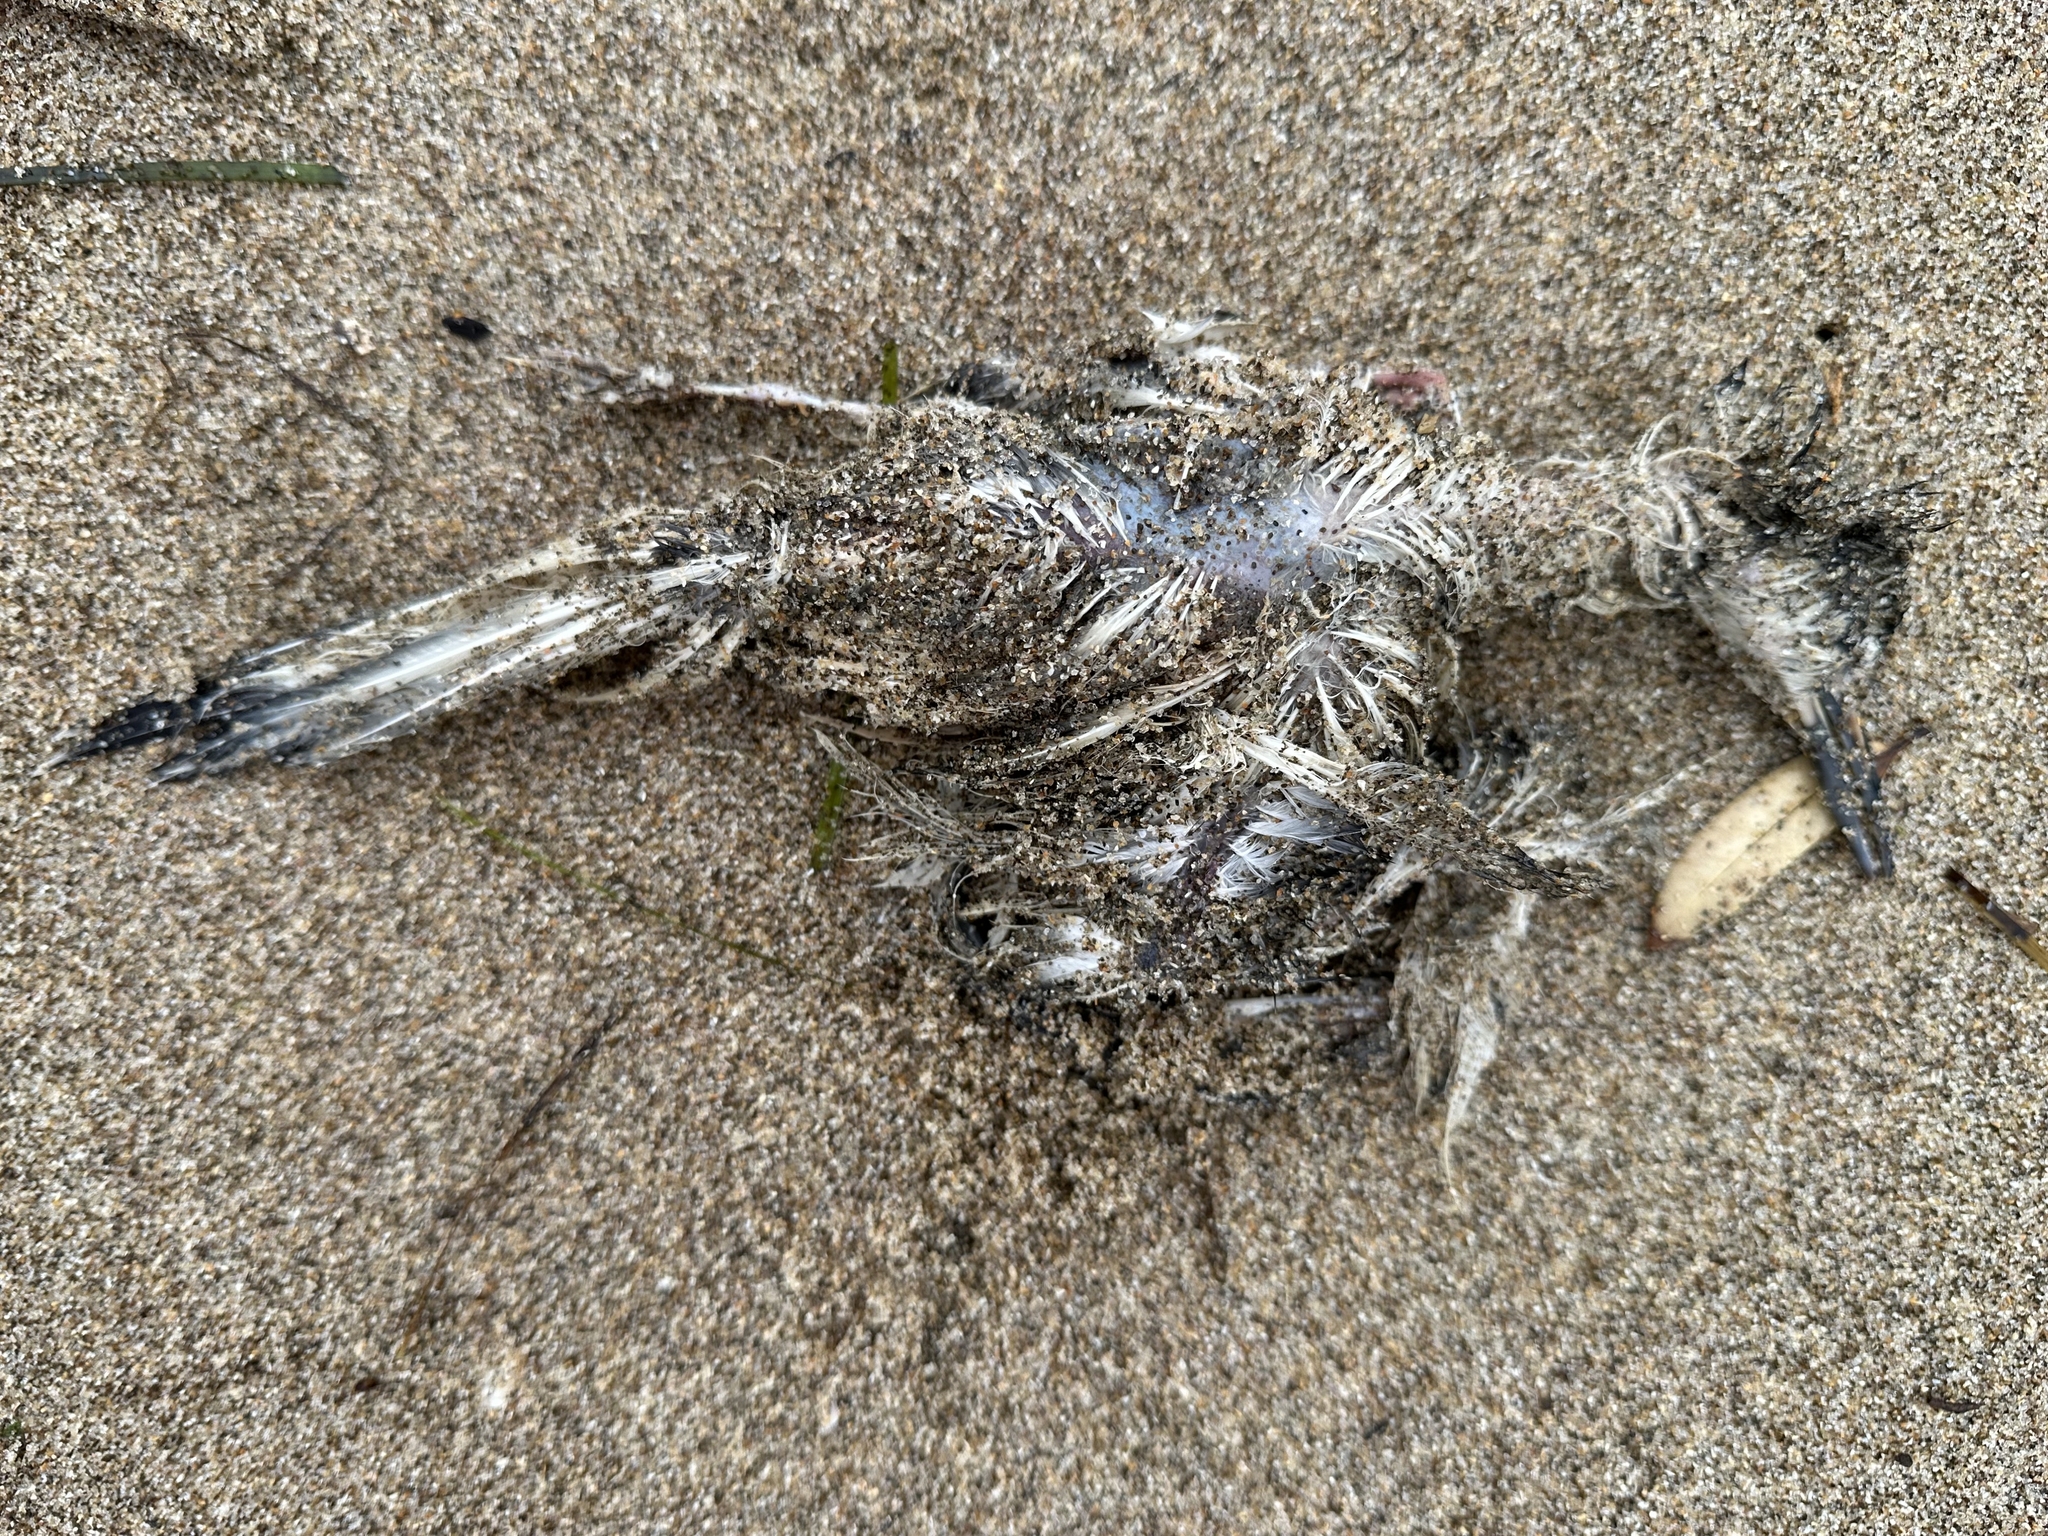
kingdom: Animalia
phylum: Chordata
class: Aves
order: Charadriiformes
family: Laridae
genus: Sterna
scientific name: Sterna striata
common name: White-fronted tern
